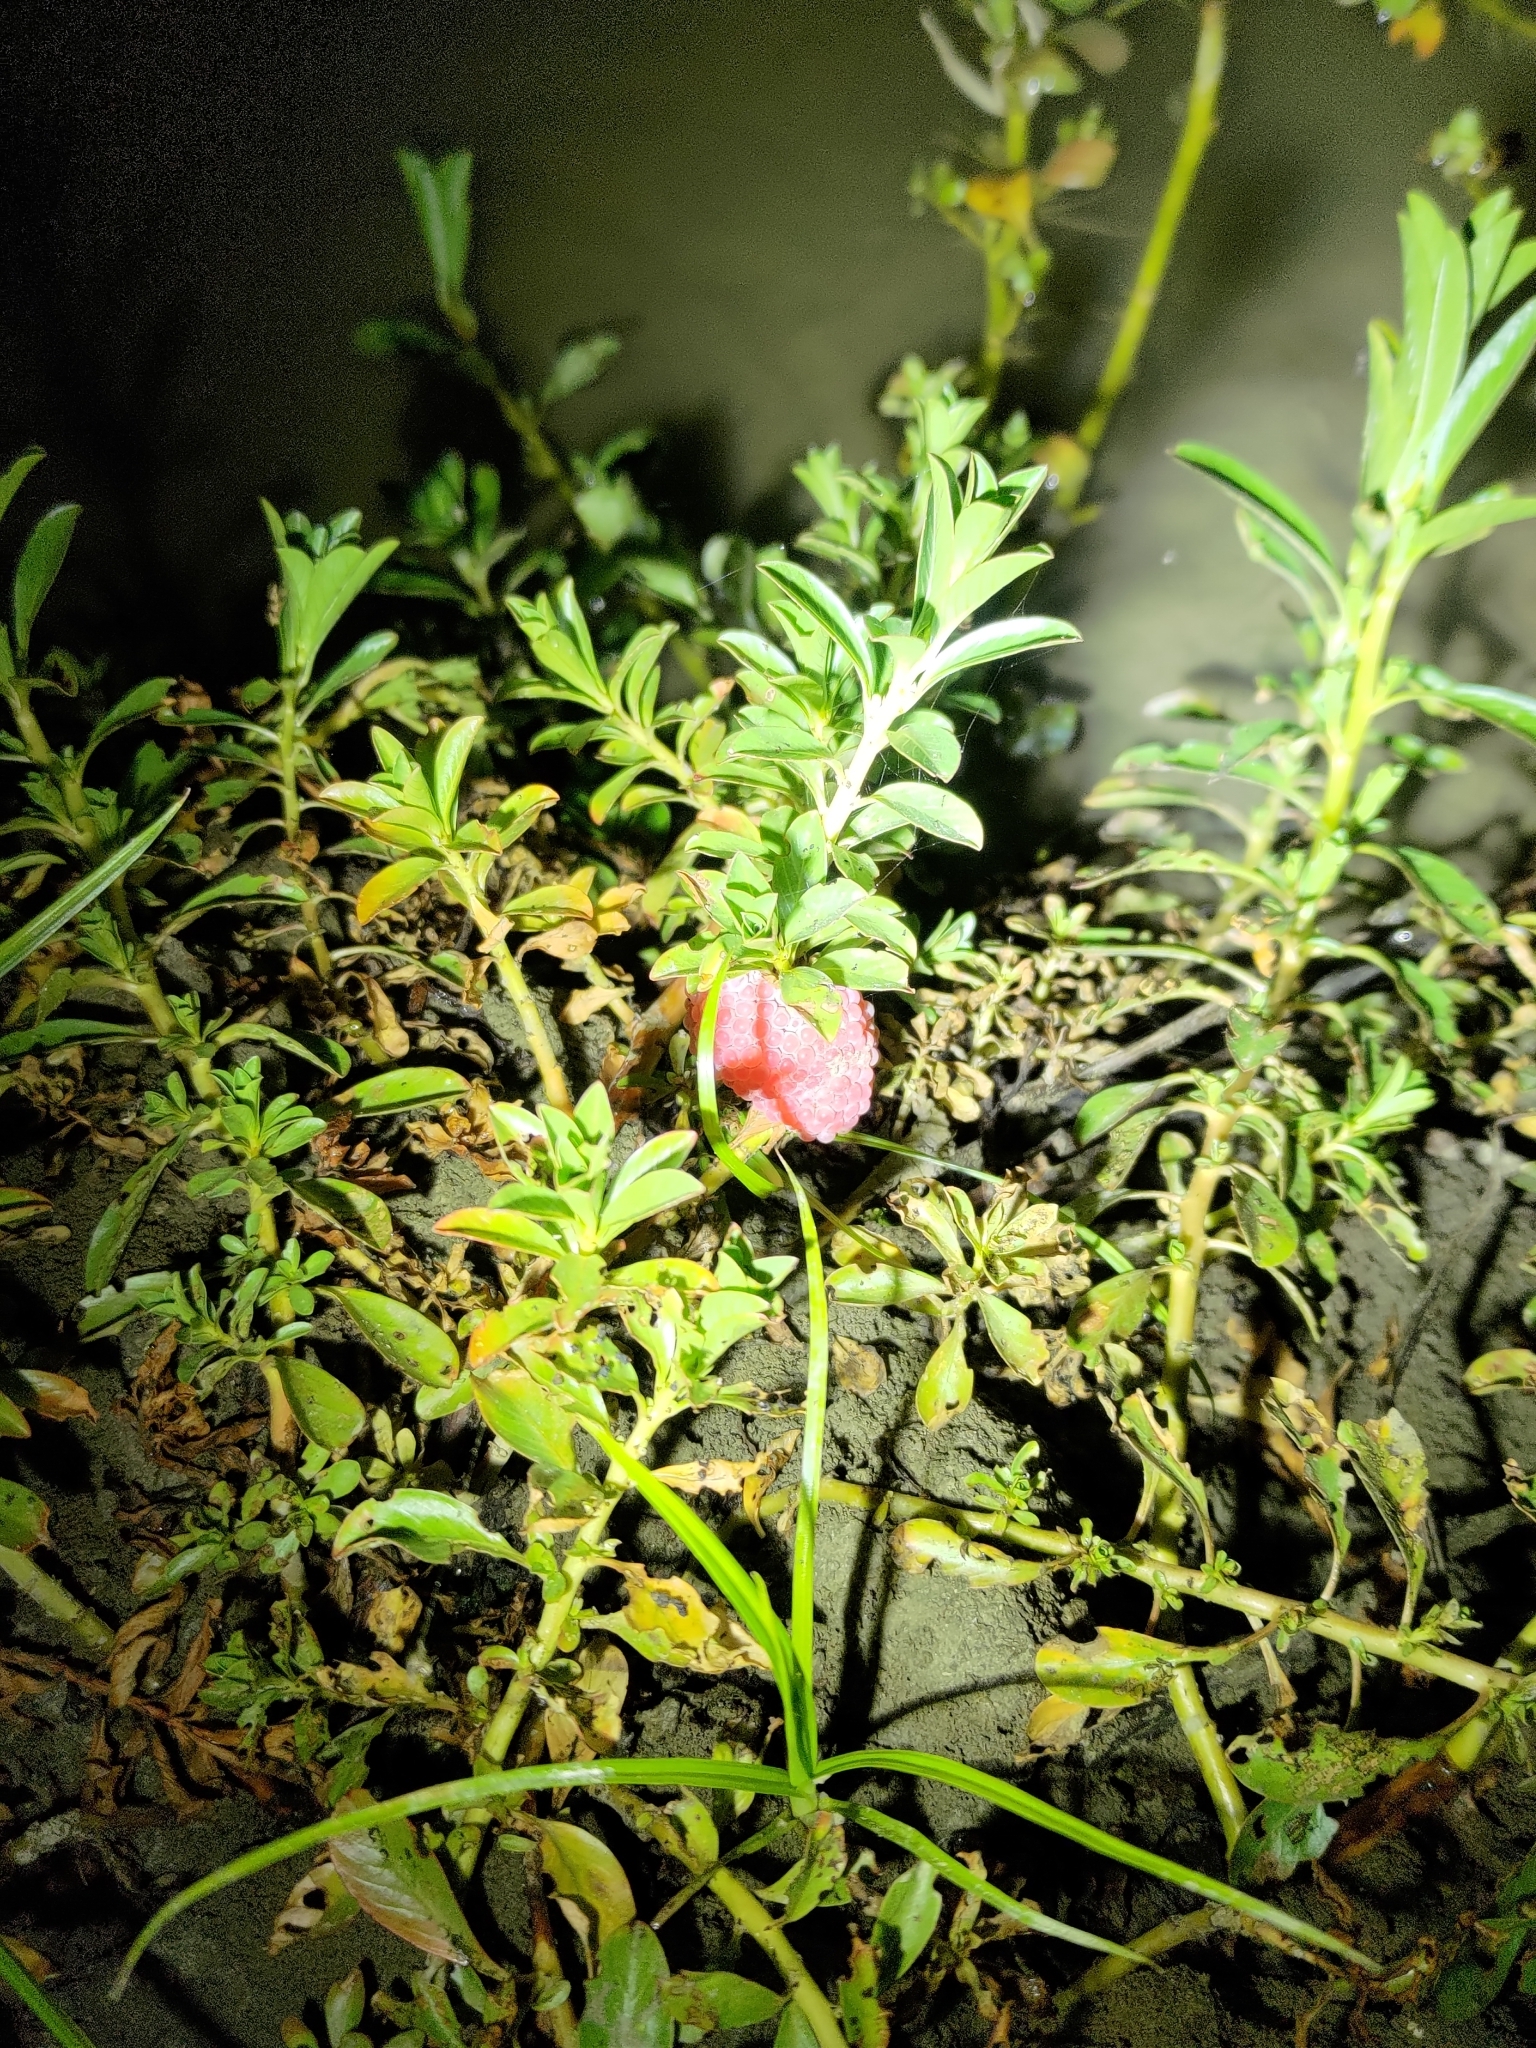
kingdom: Animalia
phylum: Mollusca
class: Gastropoda
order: Architaenioglossa
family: Ampullariidae
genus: Pomacea
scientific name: Pomacea canaliculata
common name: Channeled applesnail
